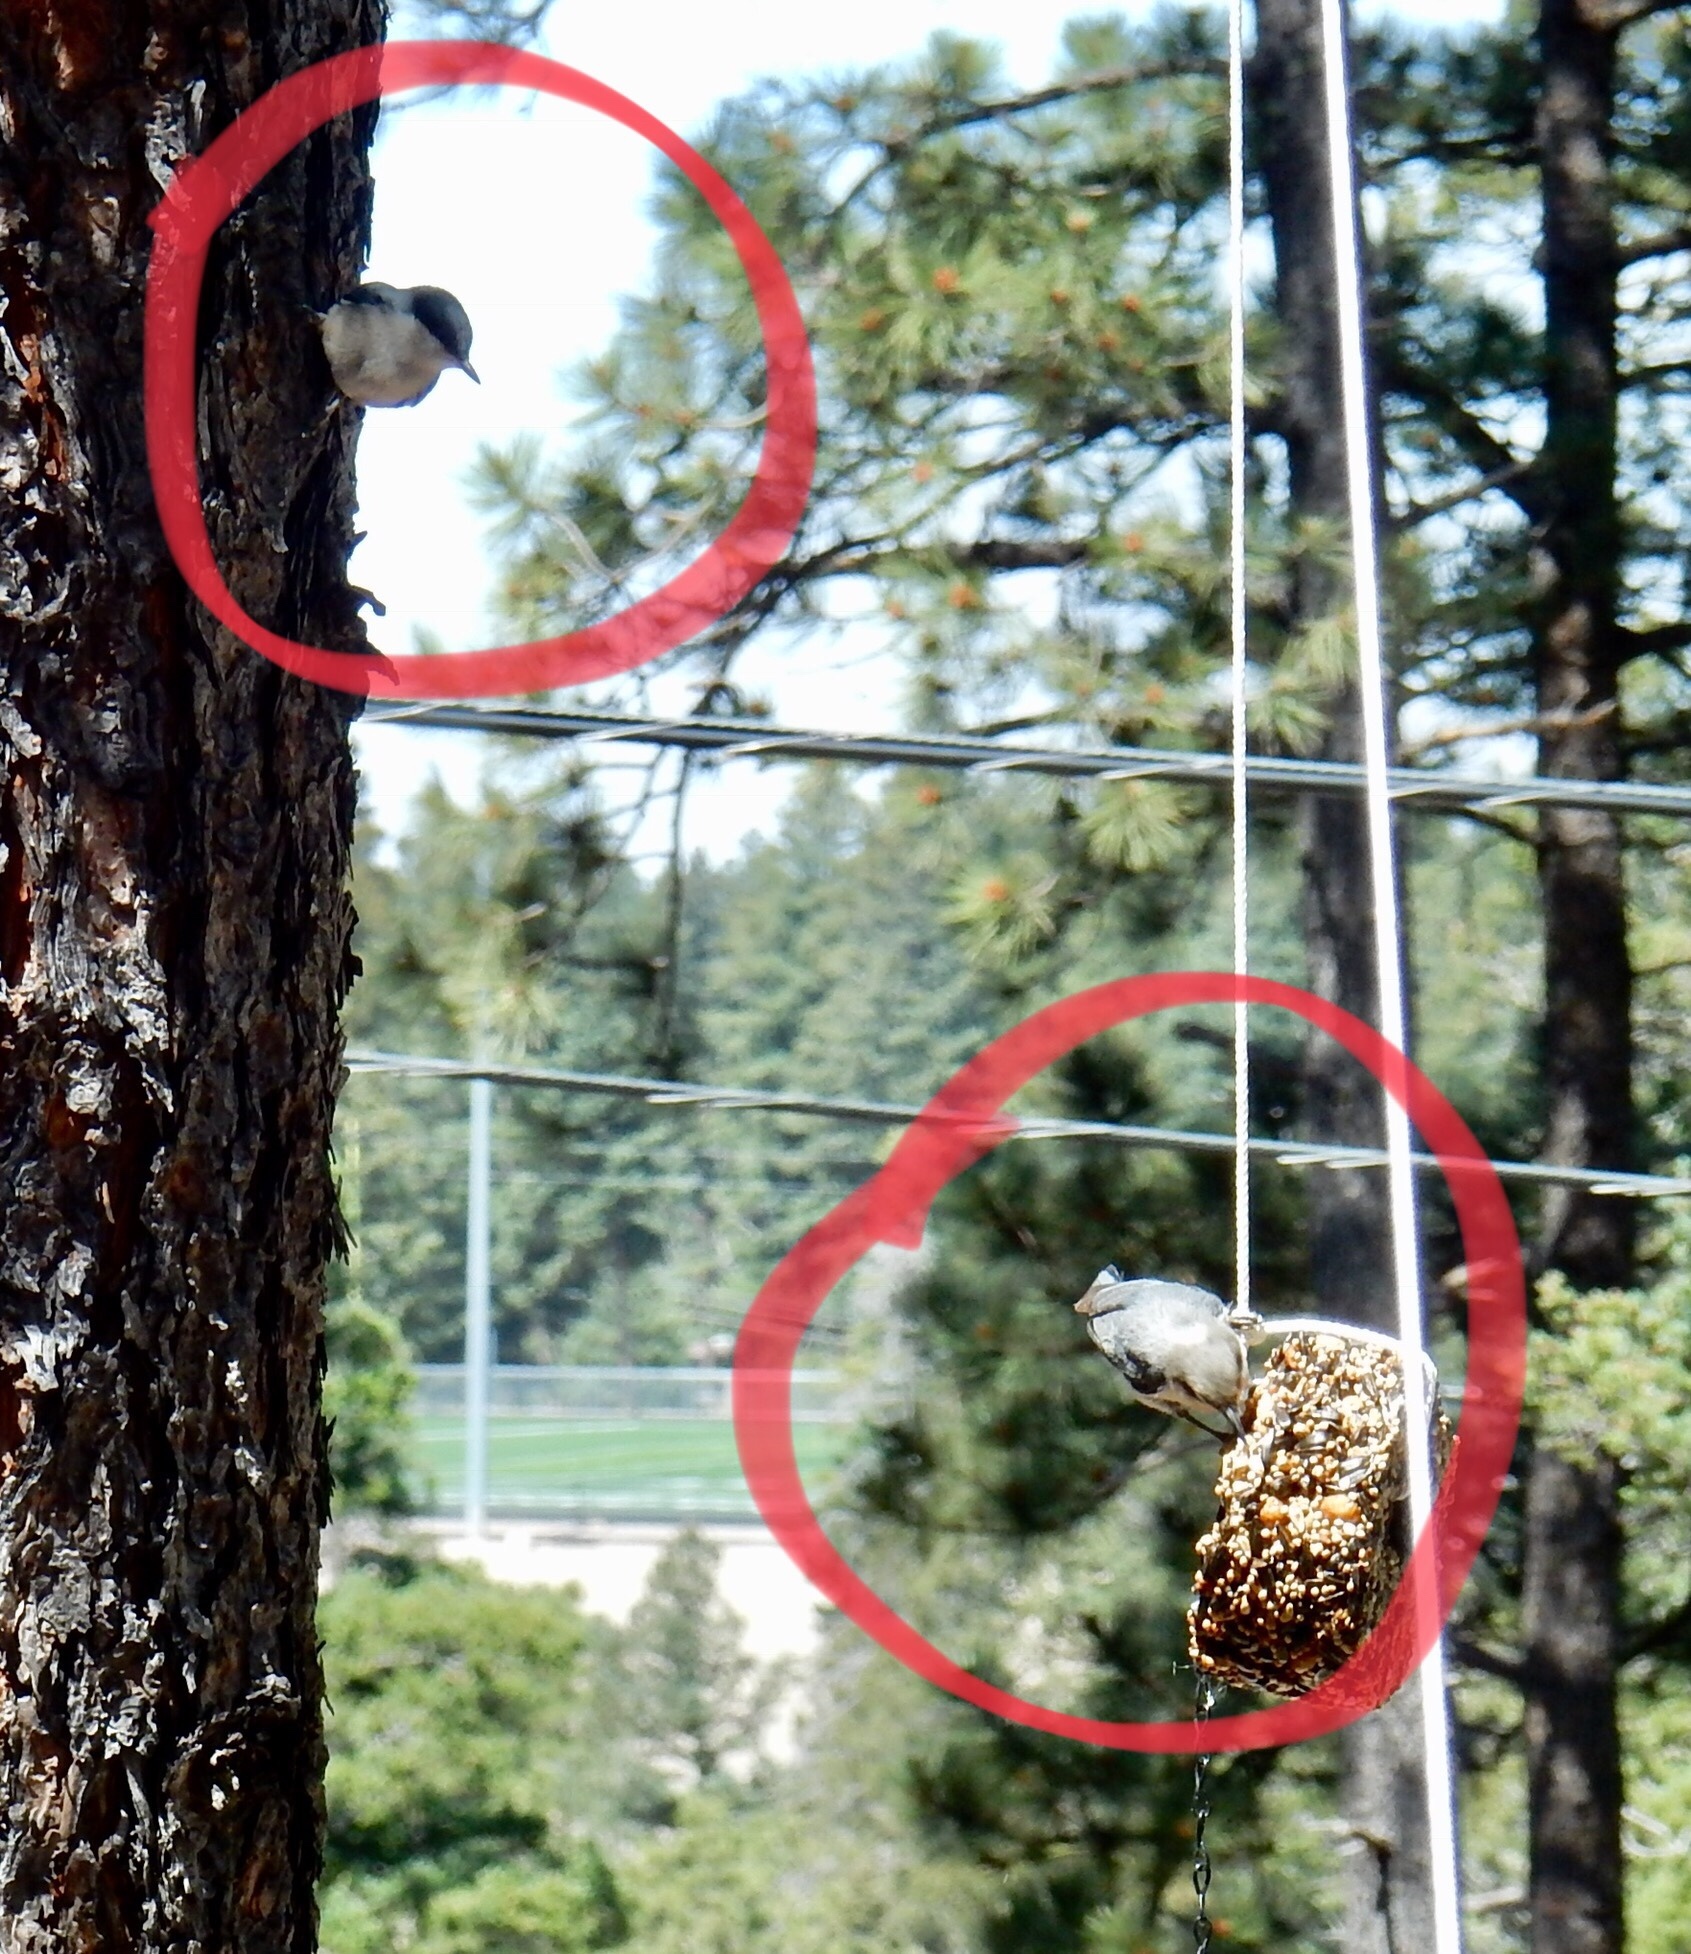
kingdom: Animalia
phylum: Chordata
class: Aves
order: Passeriformes
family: Sittidae
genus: Sitta
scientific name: Sitta pygmaea
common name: Pygmy nuthatch
